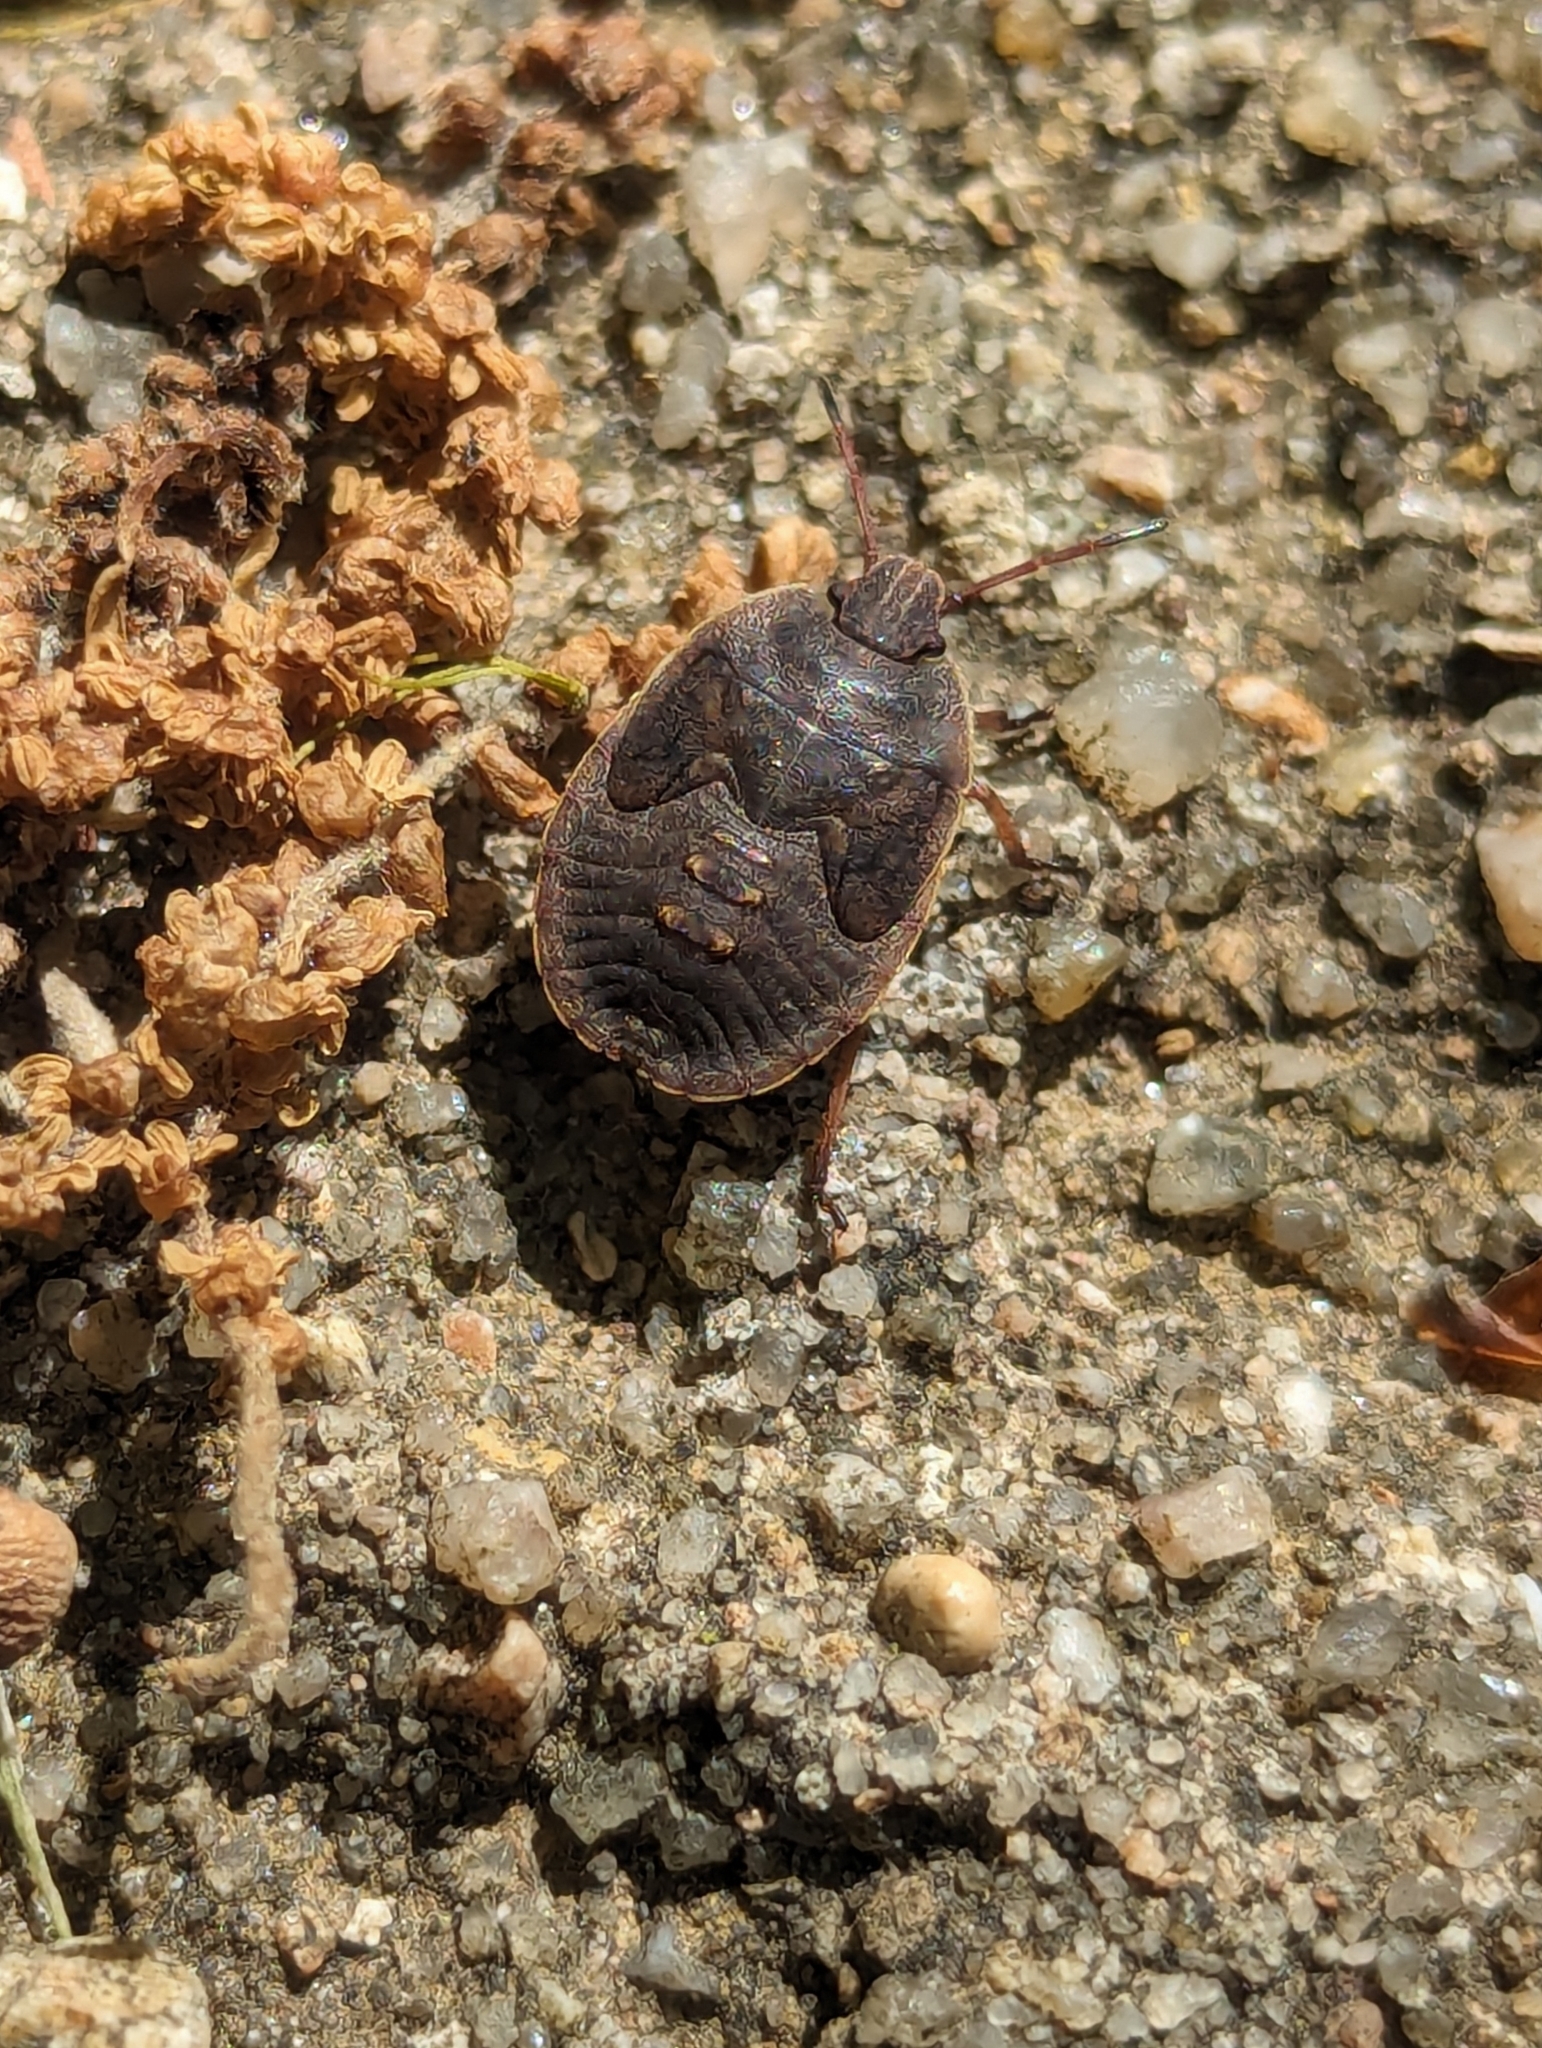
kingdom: Animalia
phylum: Arthropoda
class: Insecta
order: Hemiptera
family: Pentatomidae
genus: Menecles
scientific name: Menecles insertus
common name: Elf shoe stink bug
